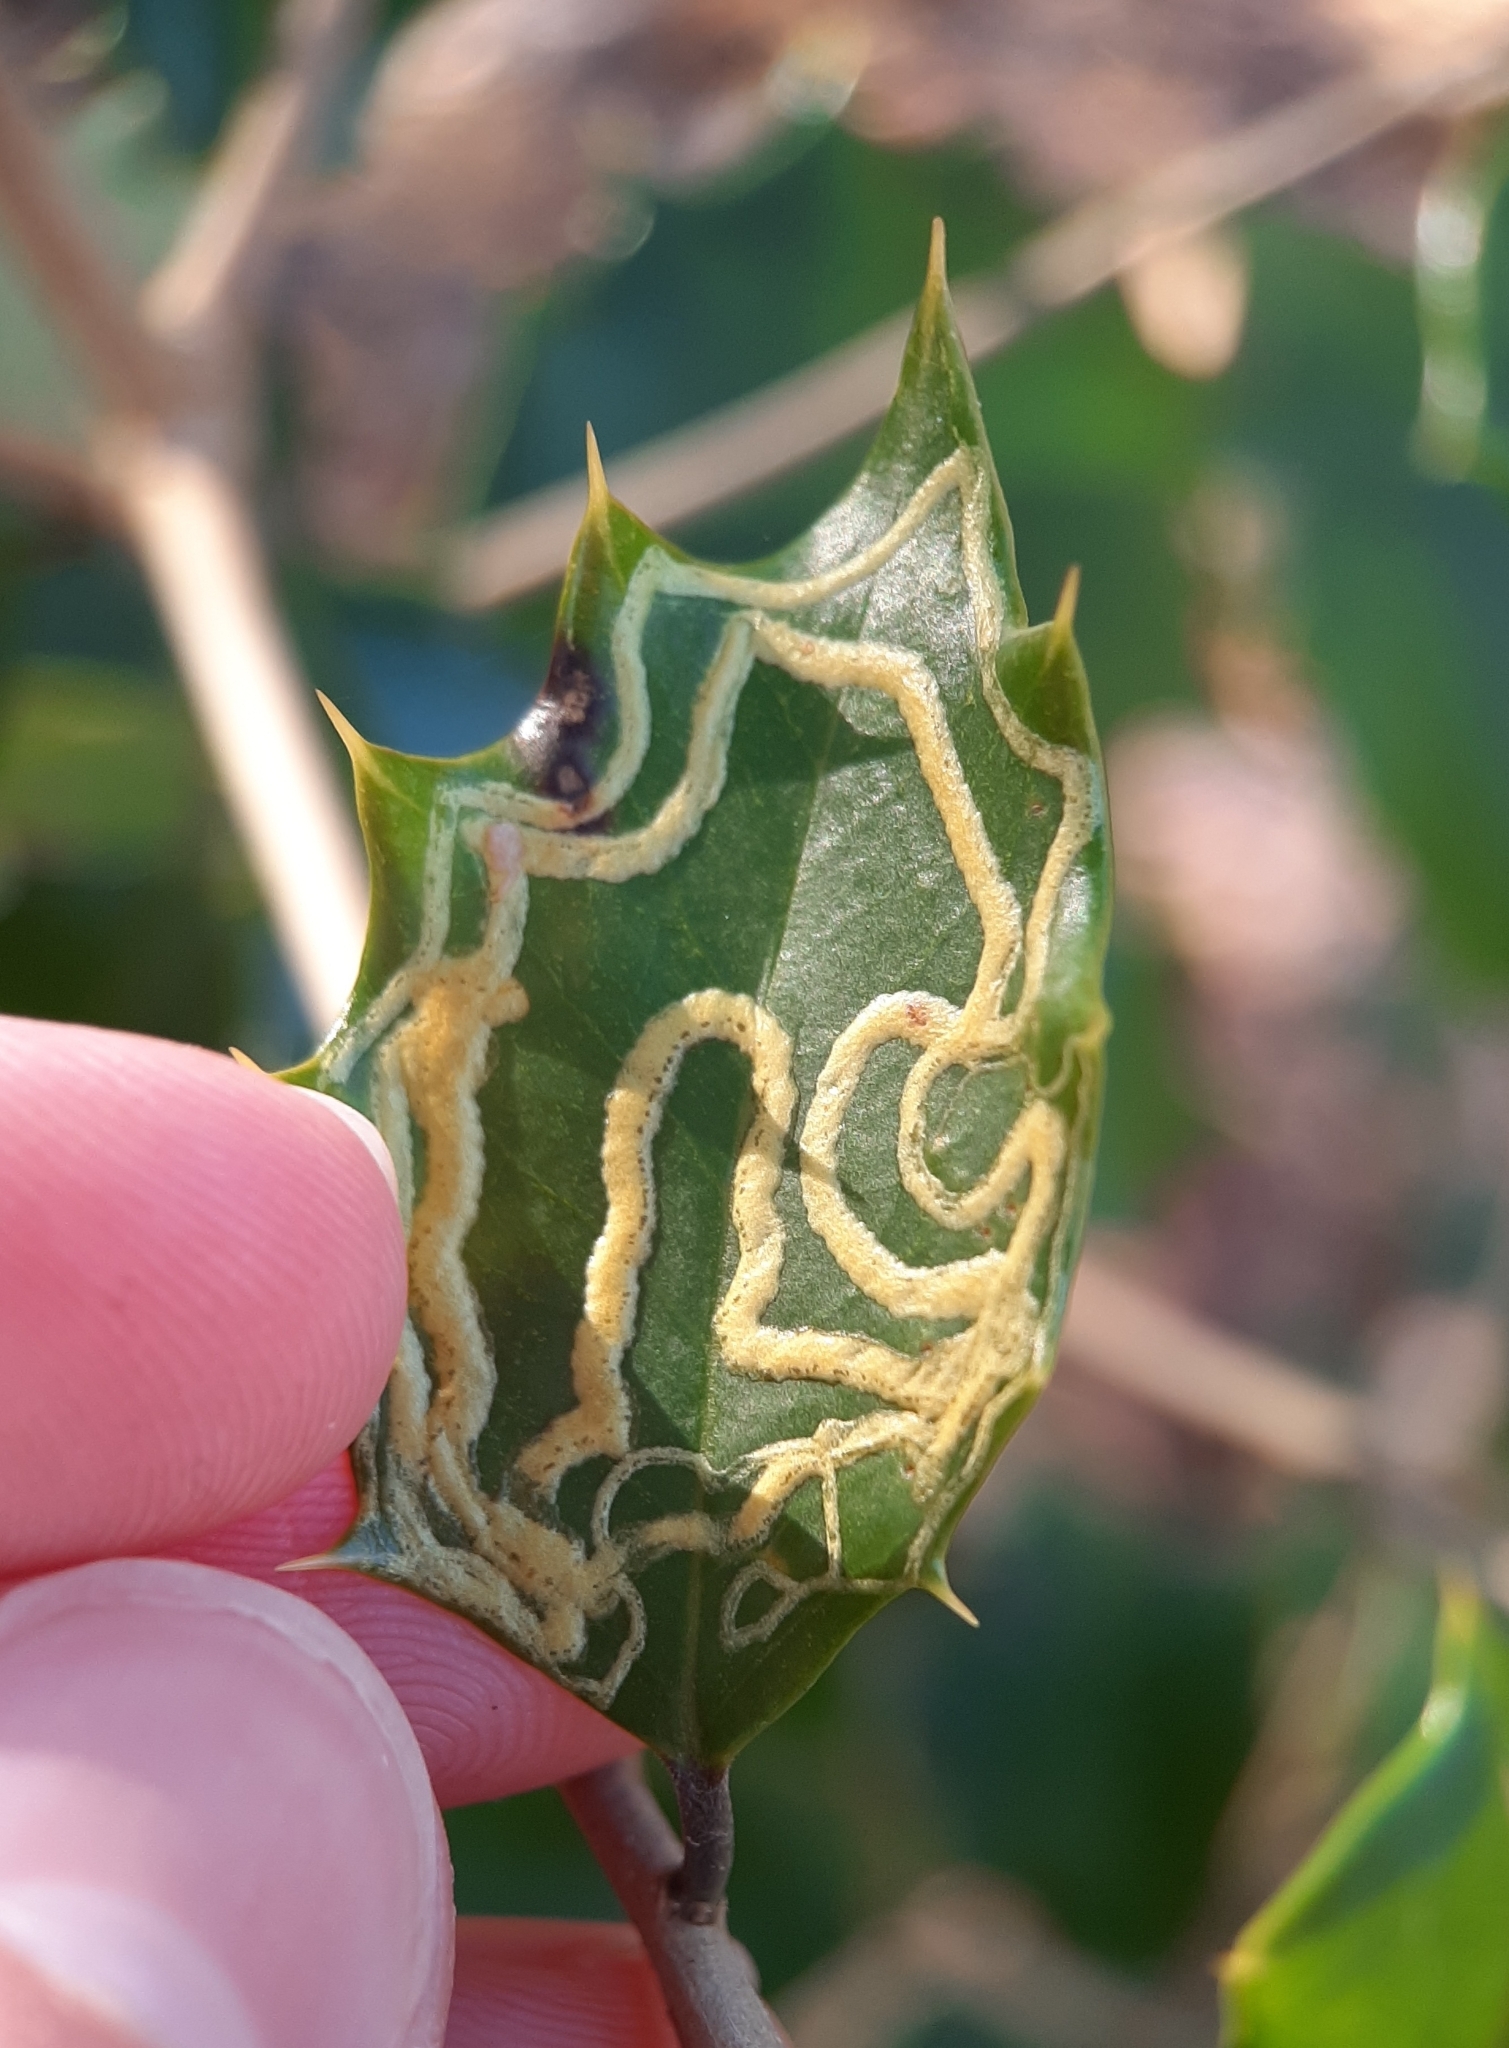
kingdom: Animalia
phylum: Arthropoda
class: Insecta
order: Diptera
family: Agromyzidae
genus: Phytomyza
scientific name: Phytomyza opacae
